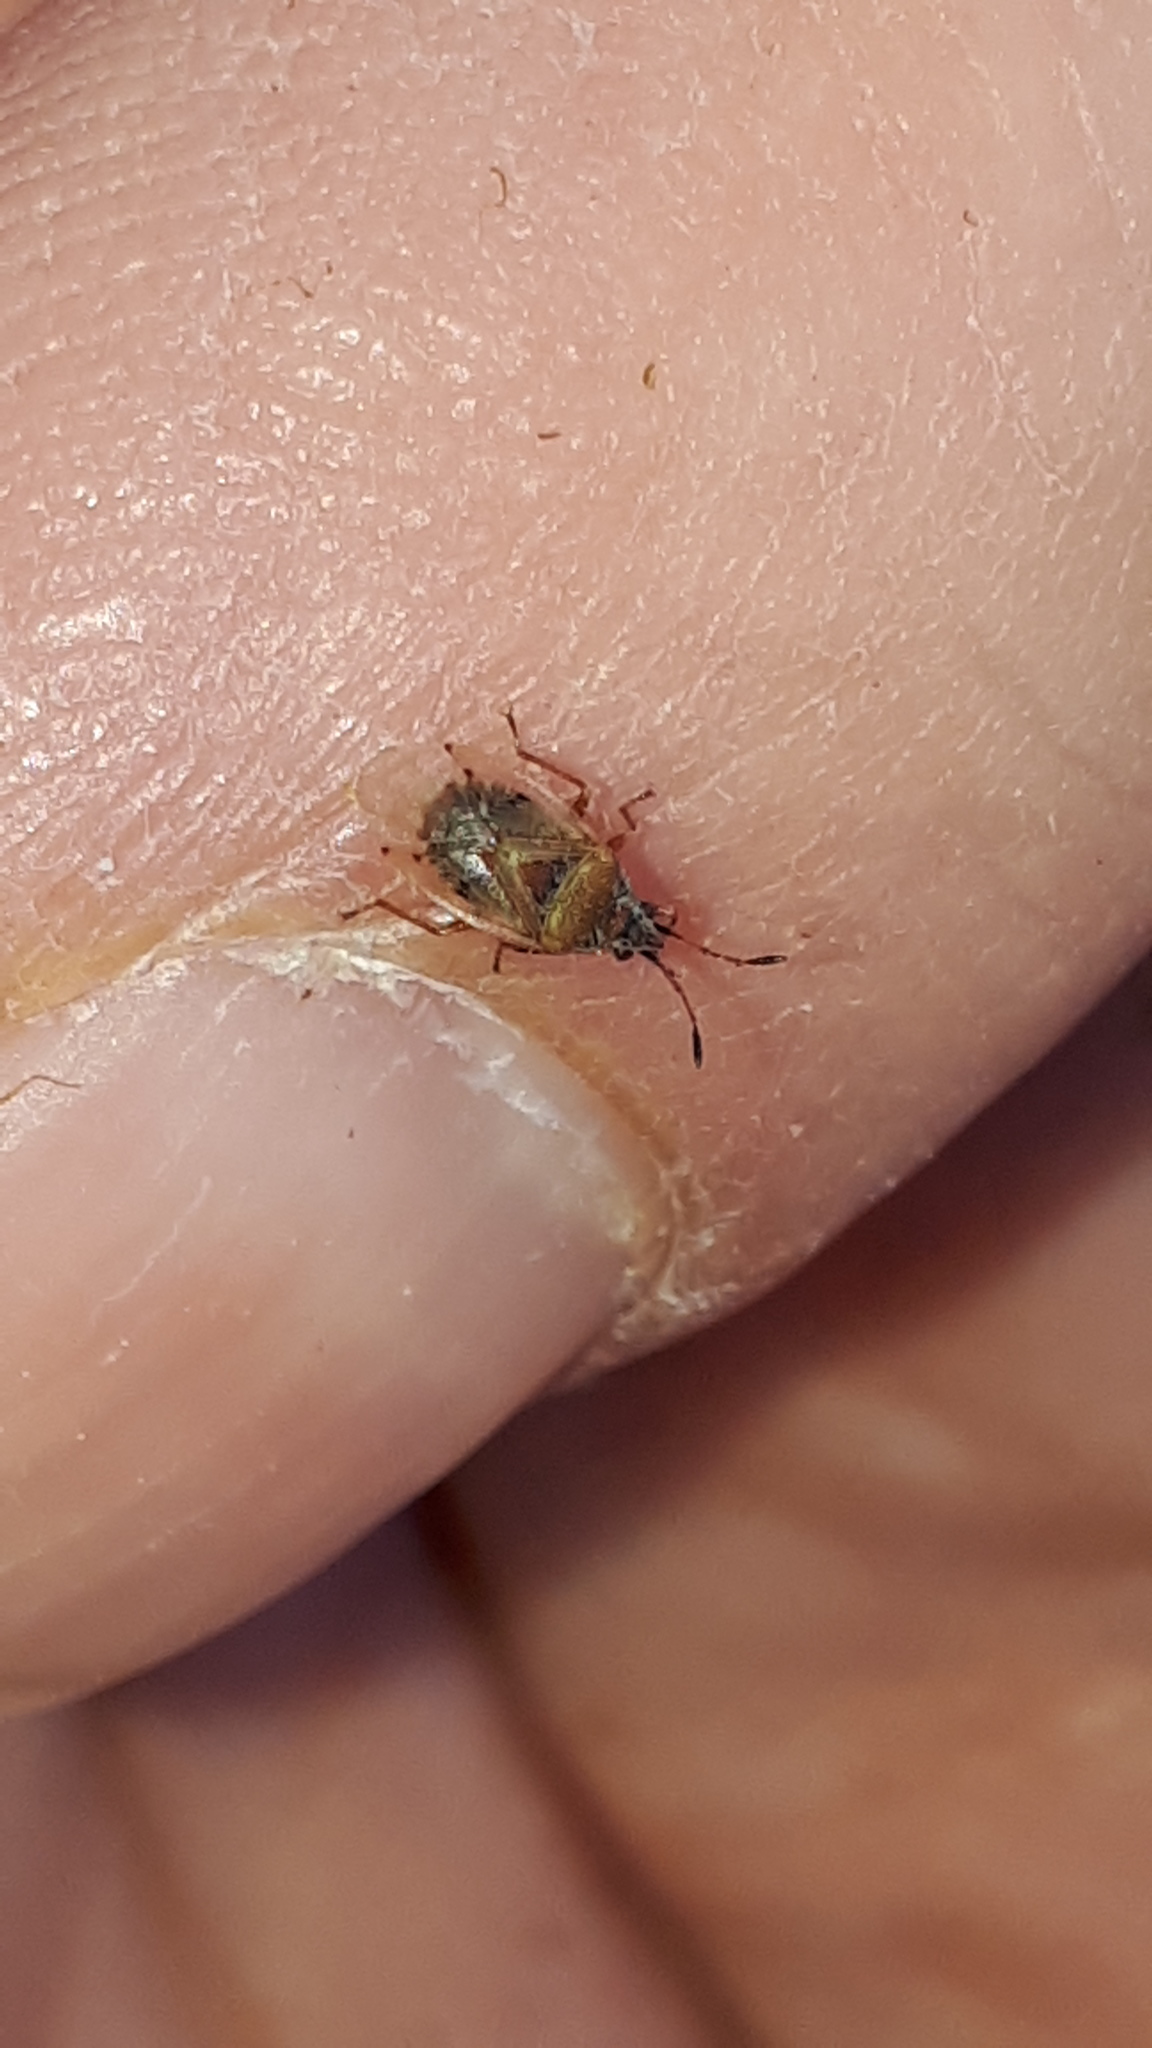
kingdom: Animalia
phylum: Arthropoda
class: Insecta
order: Hemiptera
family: Lygaeidae
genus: Kleidocerys
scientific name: Kleidocerys resedae
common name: Birch catkin bug
